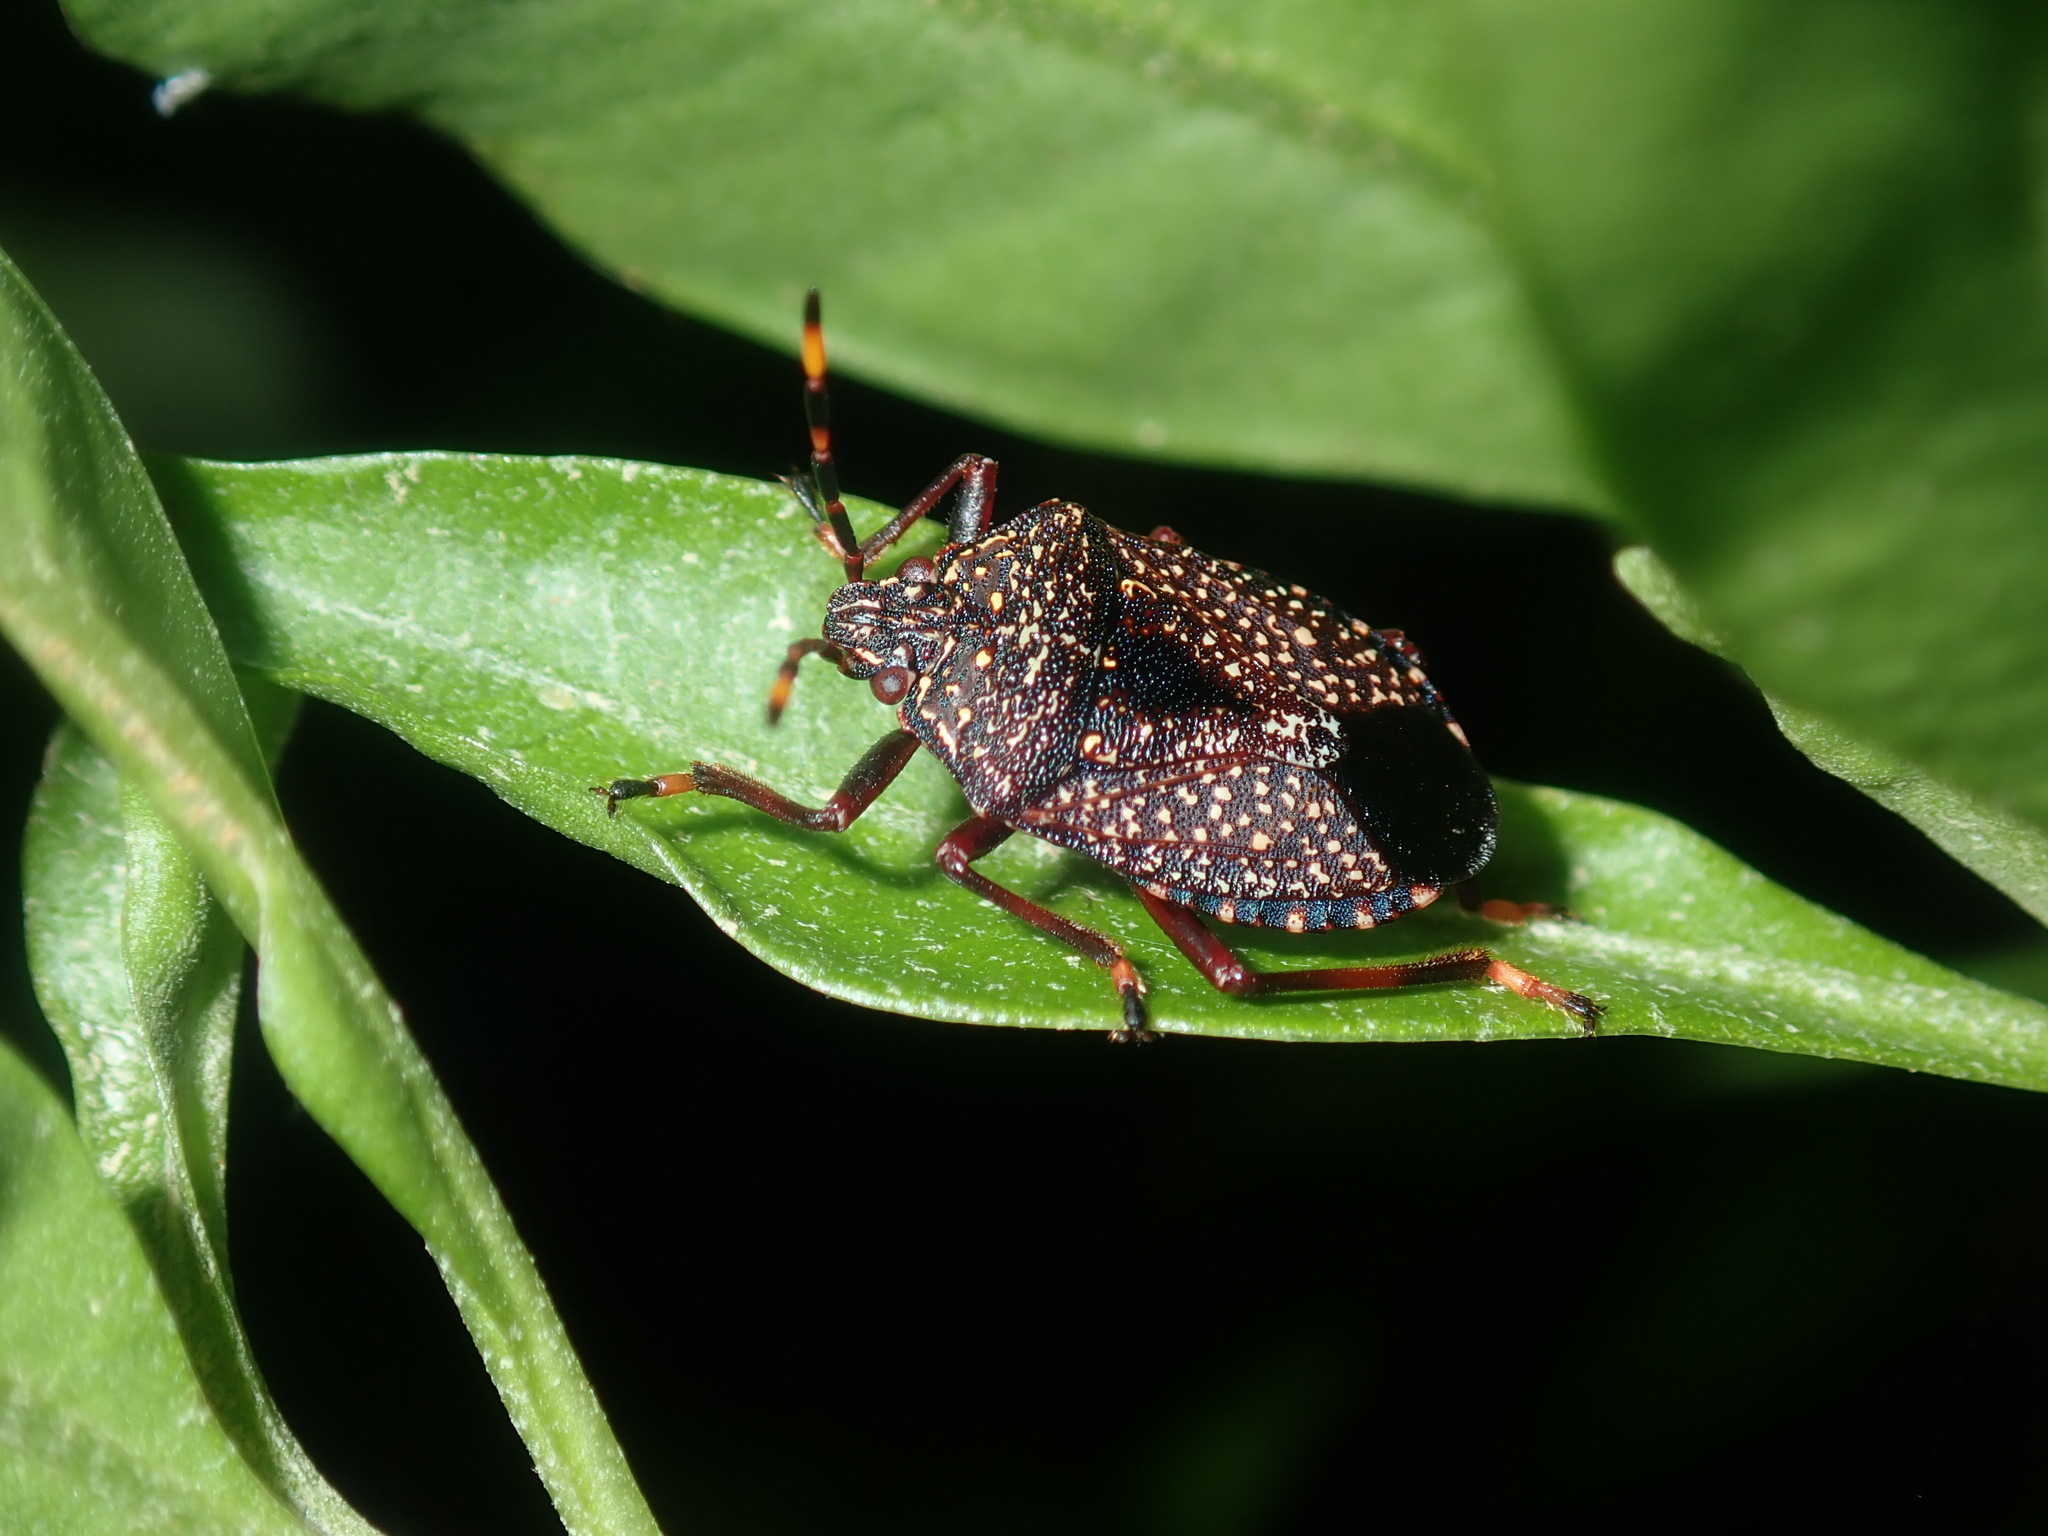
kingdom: Animalia
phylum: Arthropoda
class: Insecta
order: Hemiptera
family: Pentatomidae
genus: Notius
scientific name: Notius
